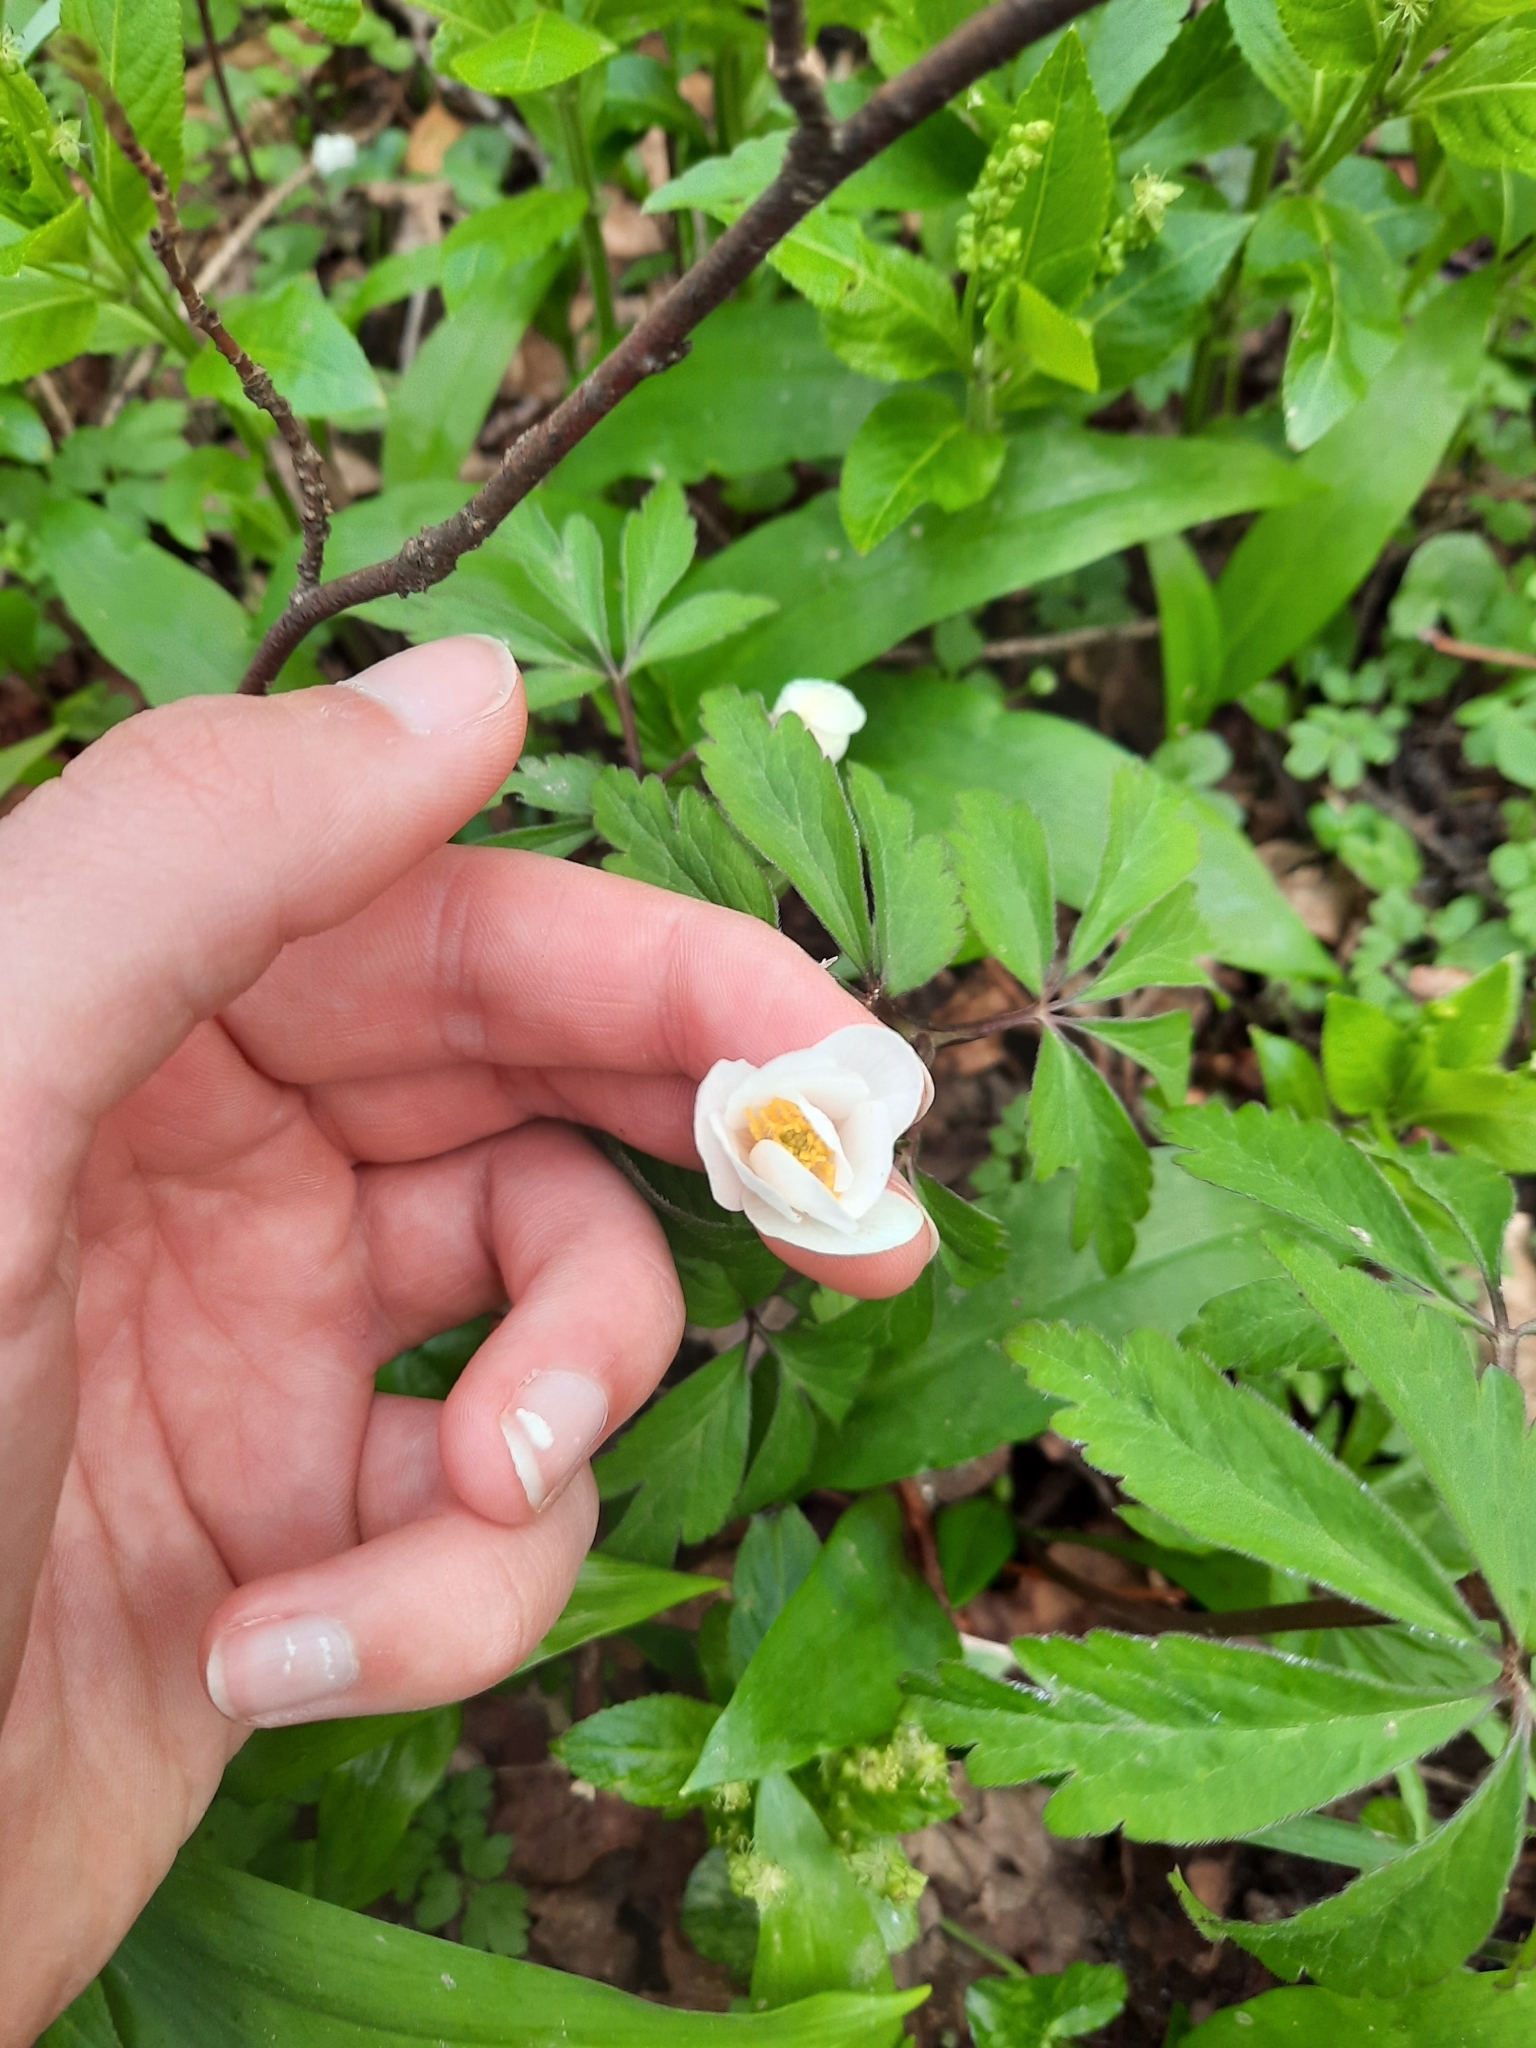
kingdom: Plantae
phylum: Tracheophyta
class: Magnoliopsida
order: Ranunculales
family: Ranunculaceae
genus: Anemone
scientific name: Anemone nemorosa
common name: Wood anemone
